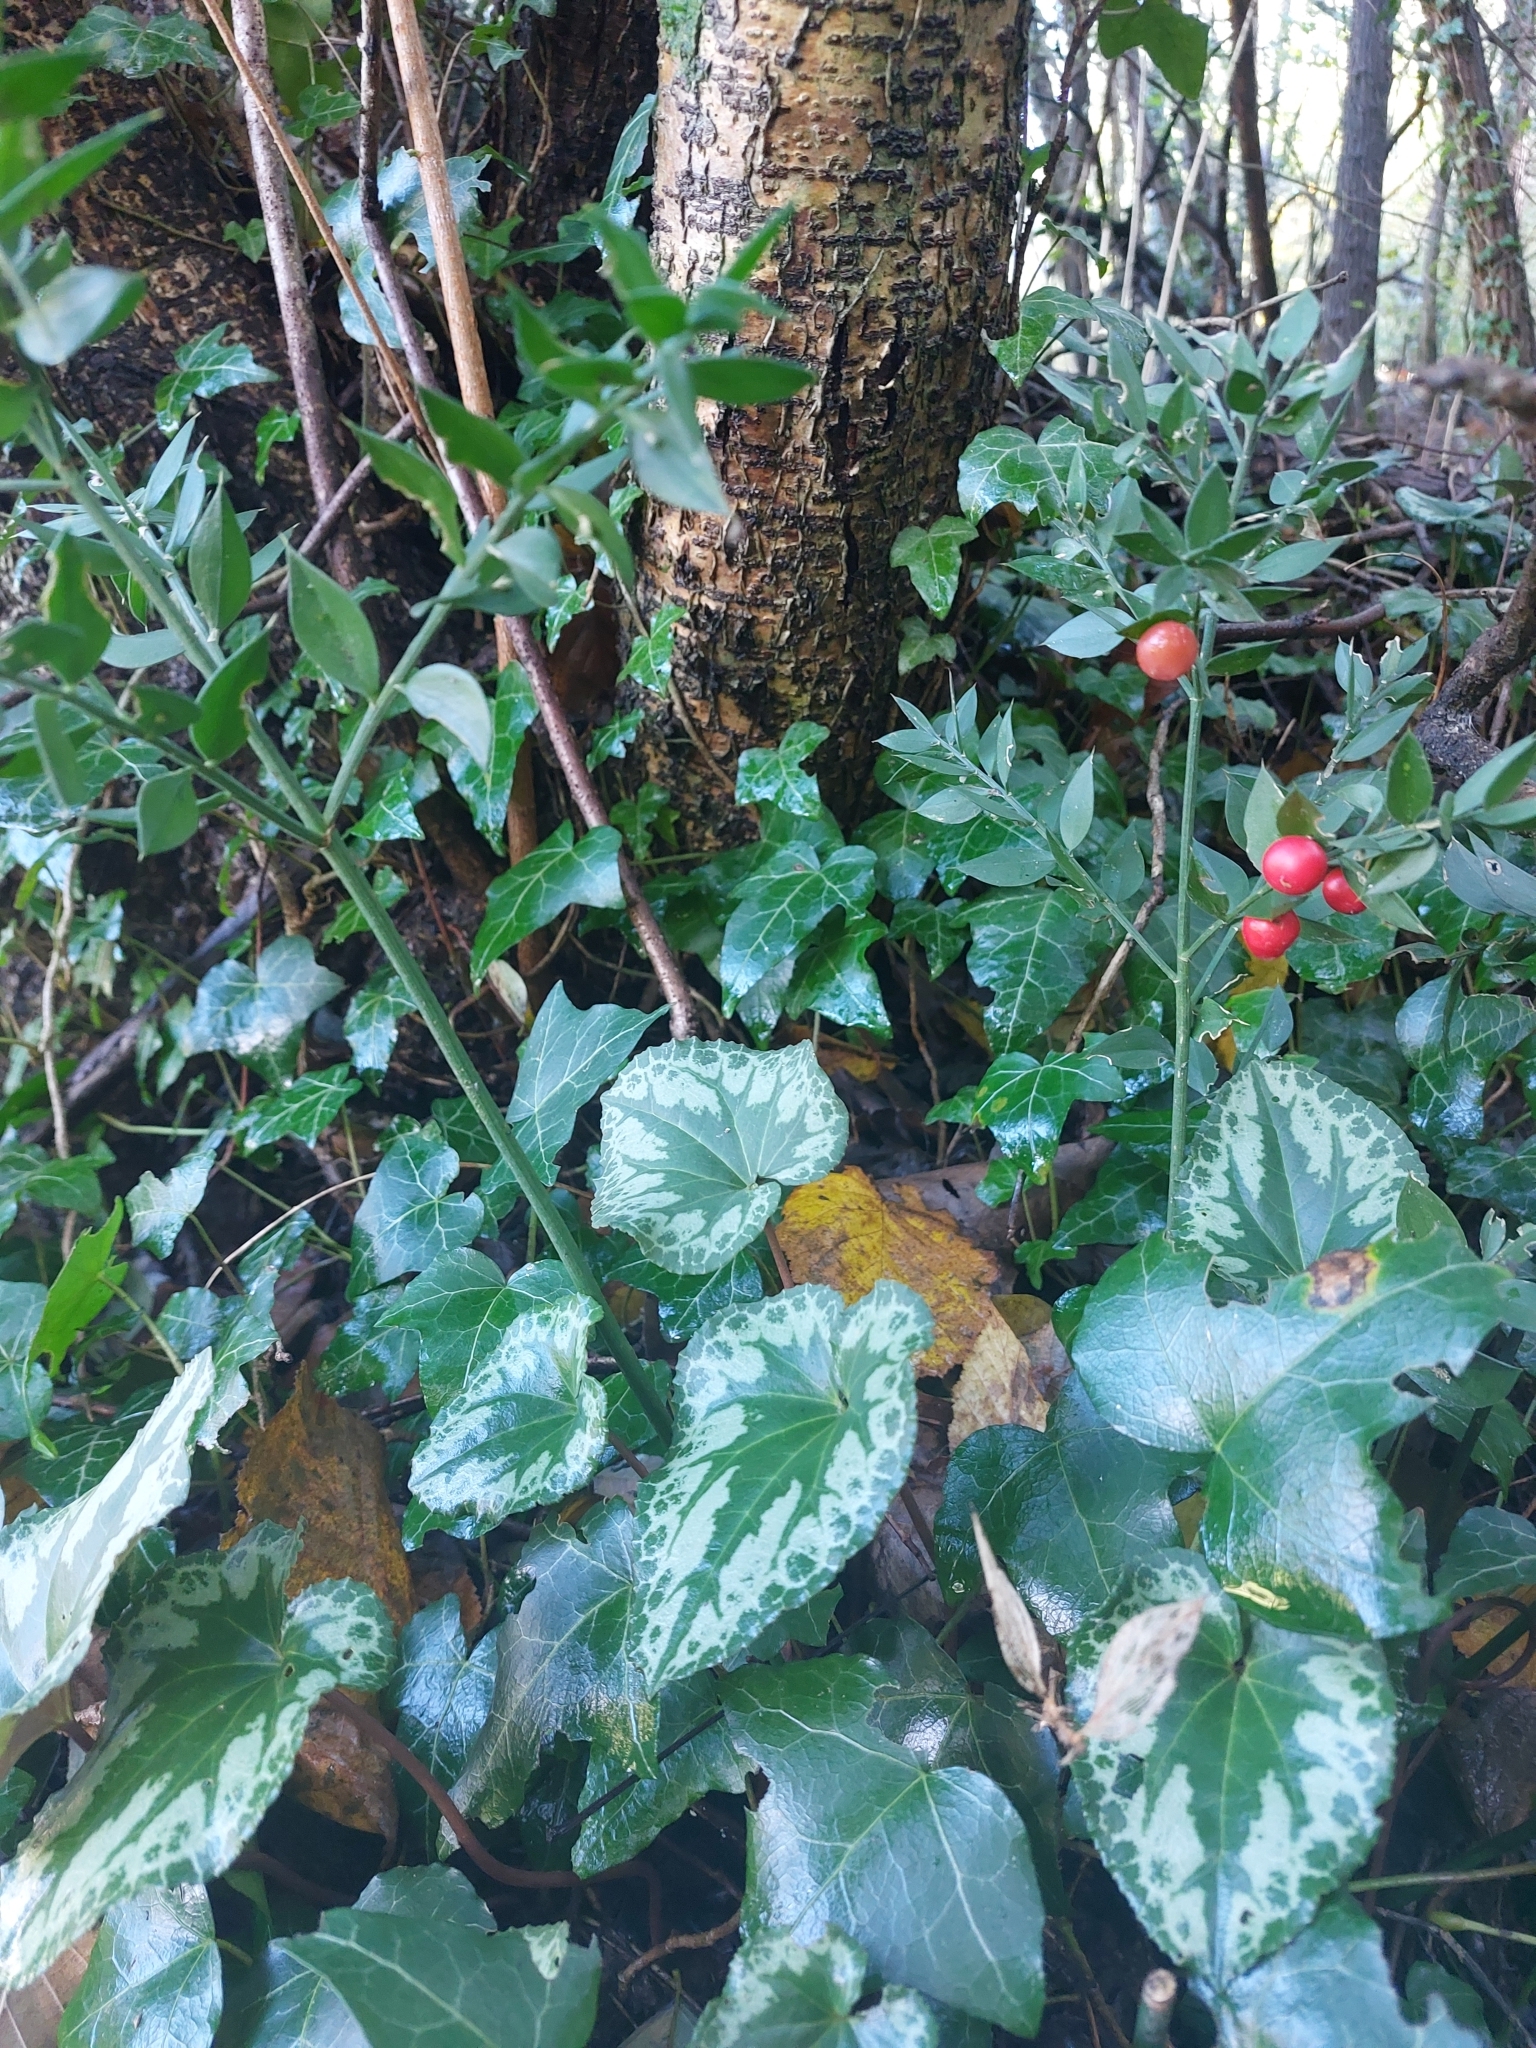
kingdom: Plantae
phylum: Tracheophyta
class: Liliopsida
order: Asparagales
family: Asparagaceae
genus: Ruscus
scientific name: Ruscus aculeatus
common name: Butcher's-broom
